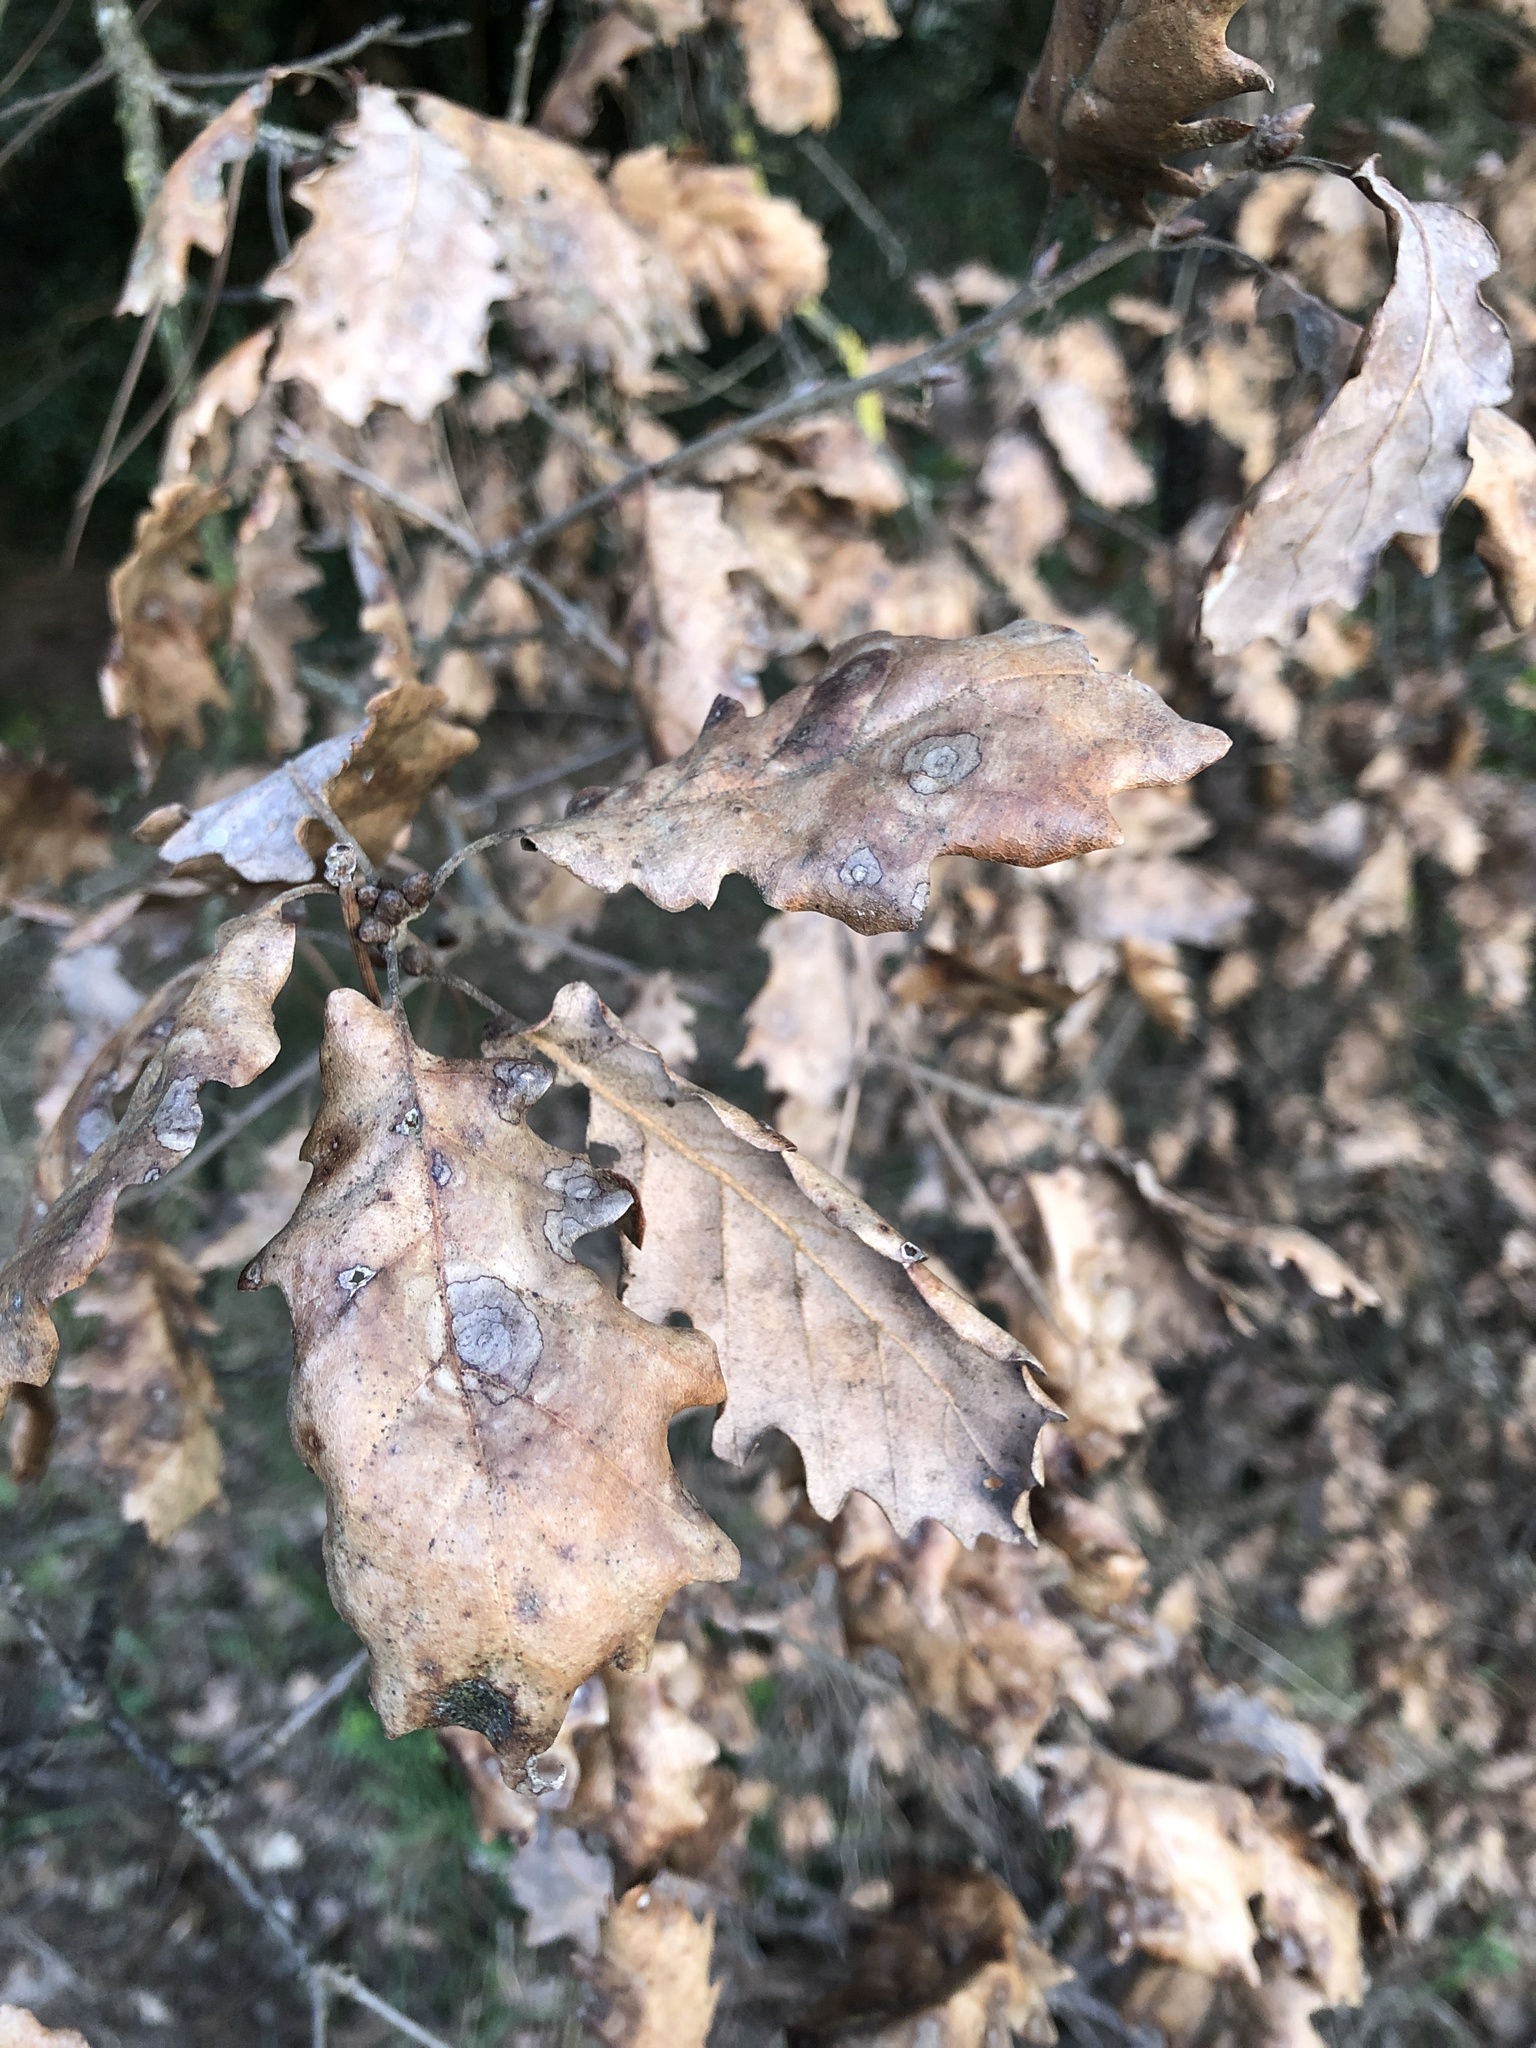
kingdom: Plantae
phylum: Tracheophyta
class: Magnoliopsida
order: Fagales
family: Fagaceae
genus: Quercus
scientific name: Quercus pubescens
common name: Downy oak
